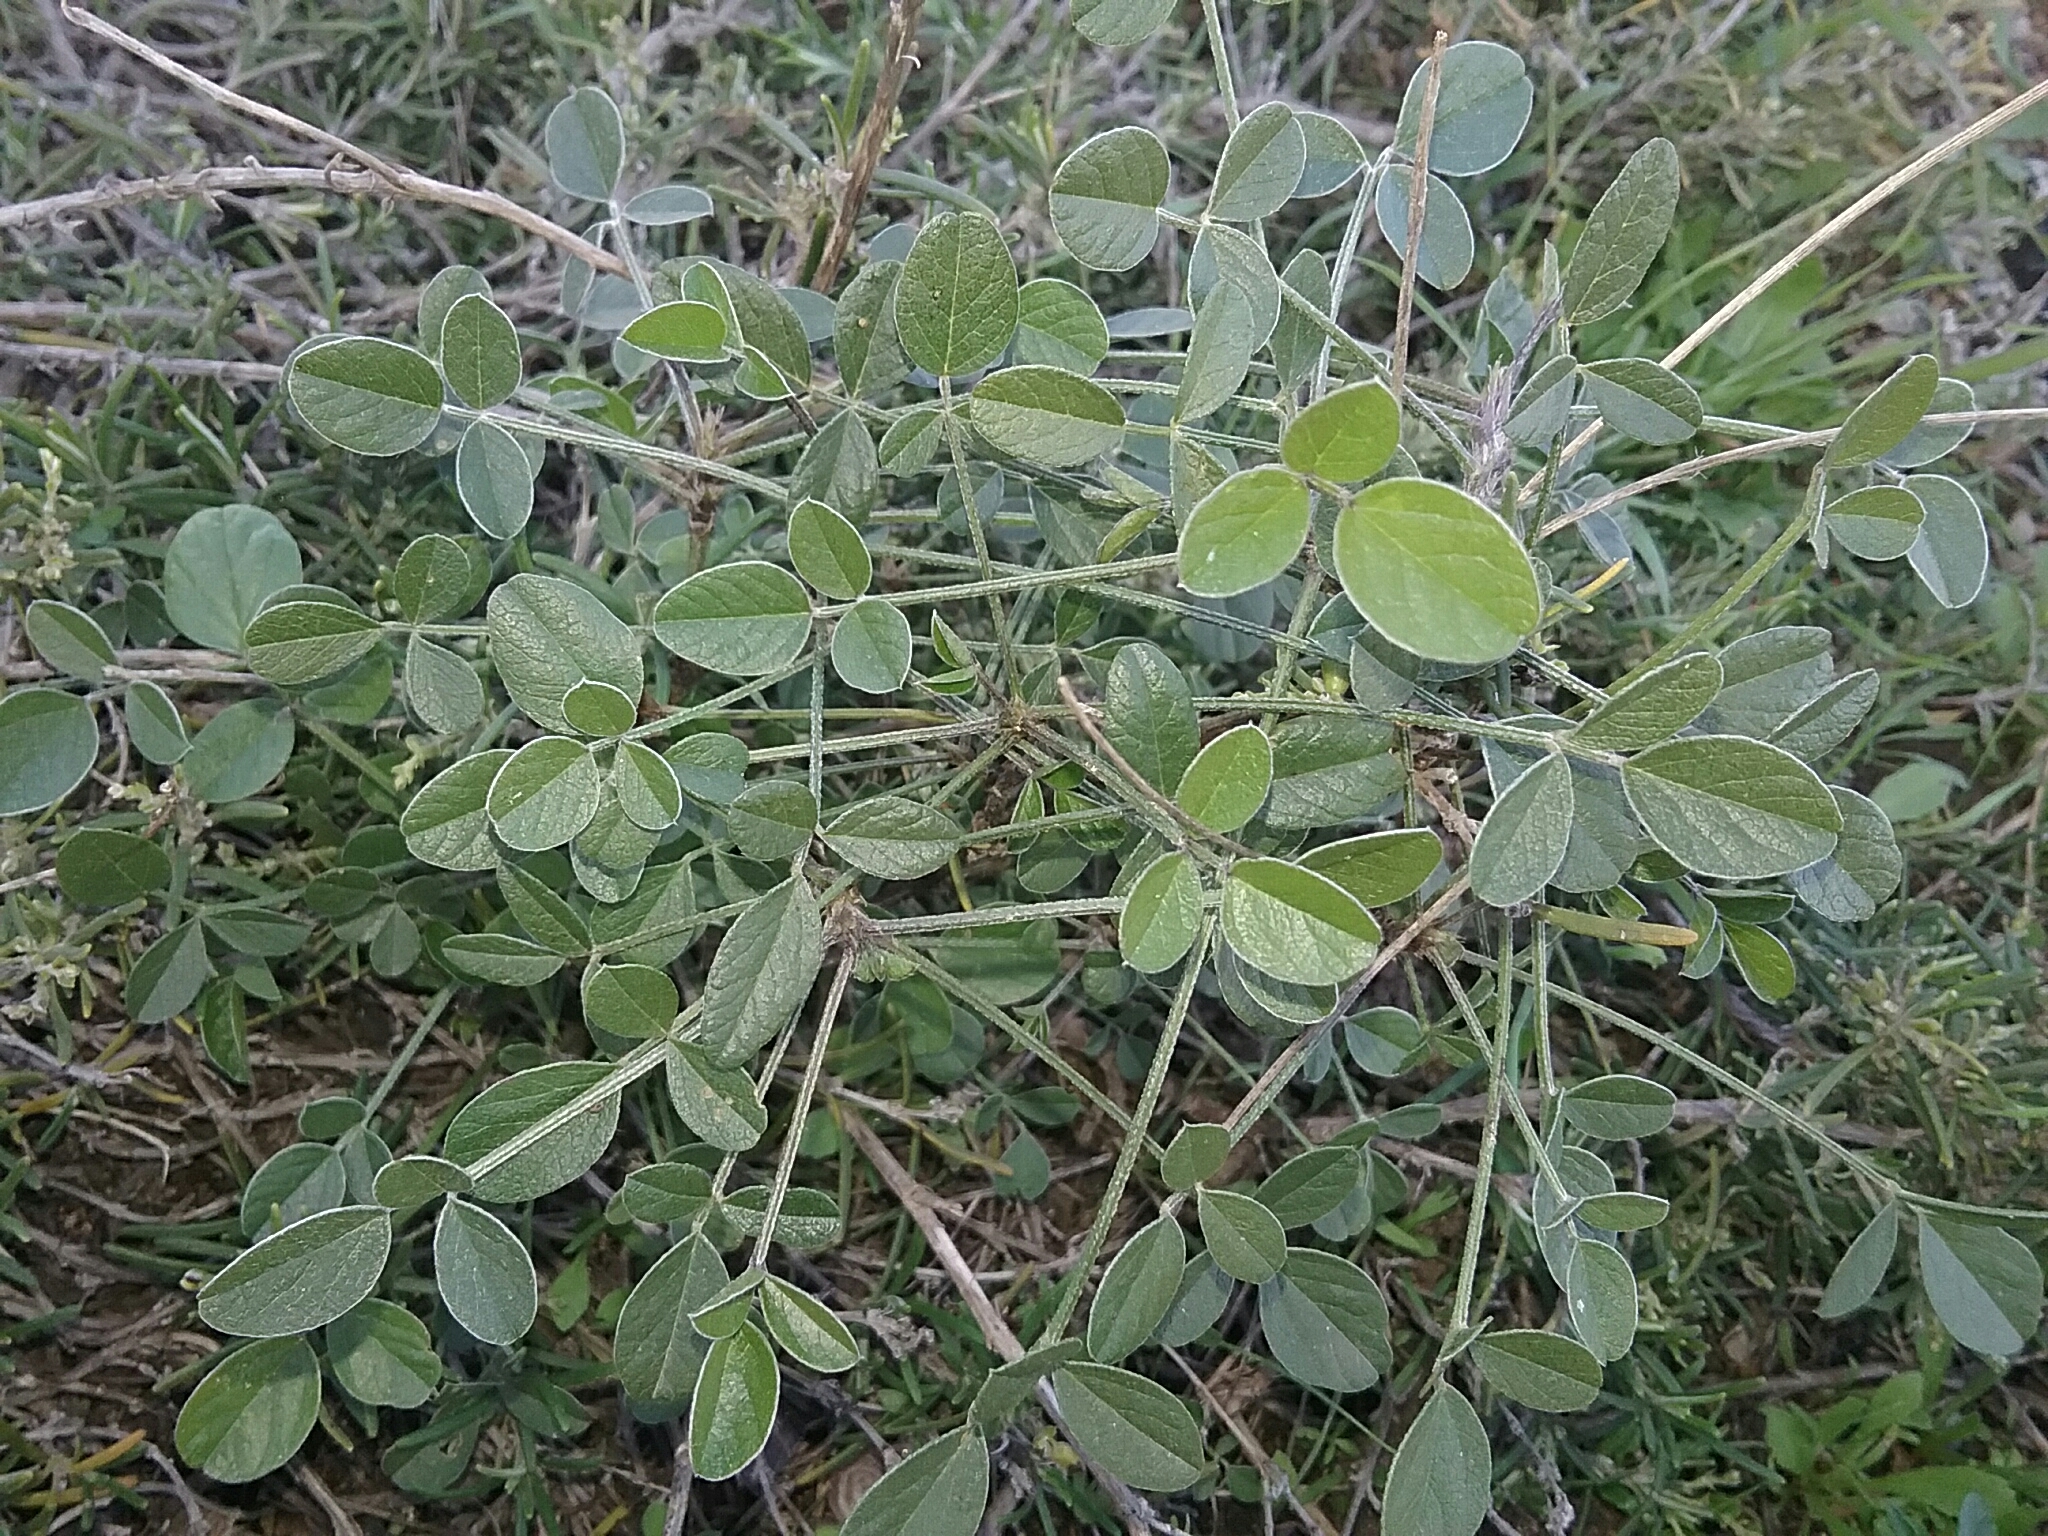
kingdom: Plantae
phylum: Tracheophyta
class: Magnoliopsida
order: Fabales
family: Fabaceae
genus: Bituminaria
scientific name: Bituminaria bituminosa
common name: Arabian pea
